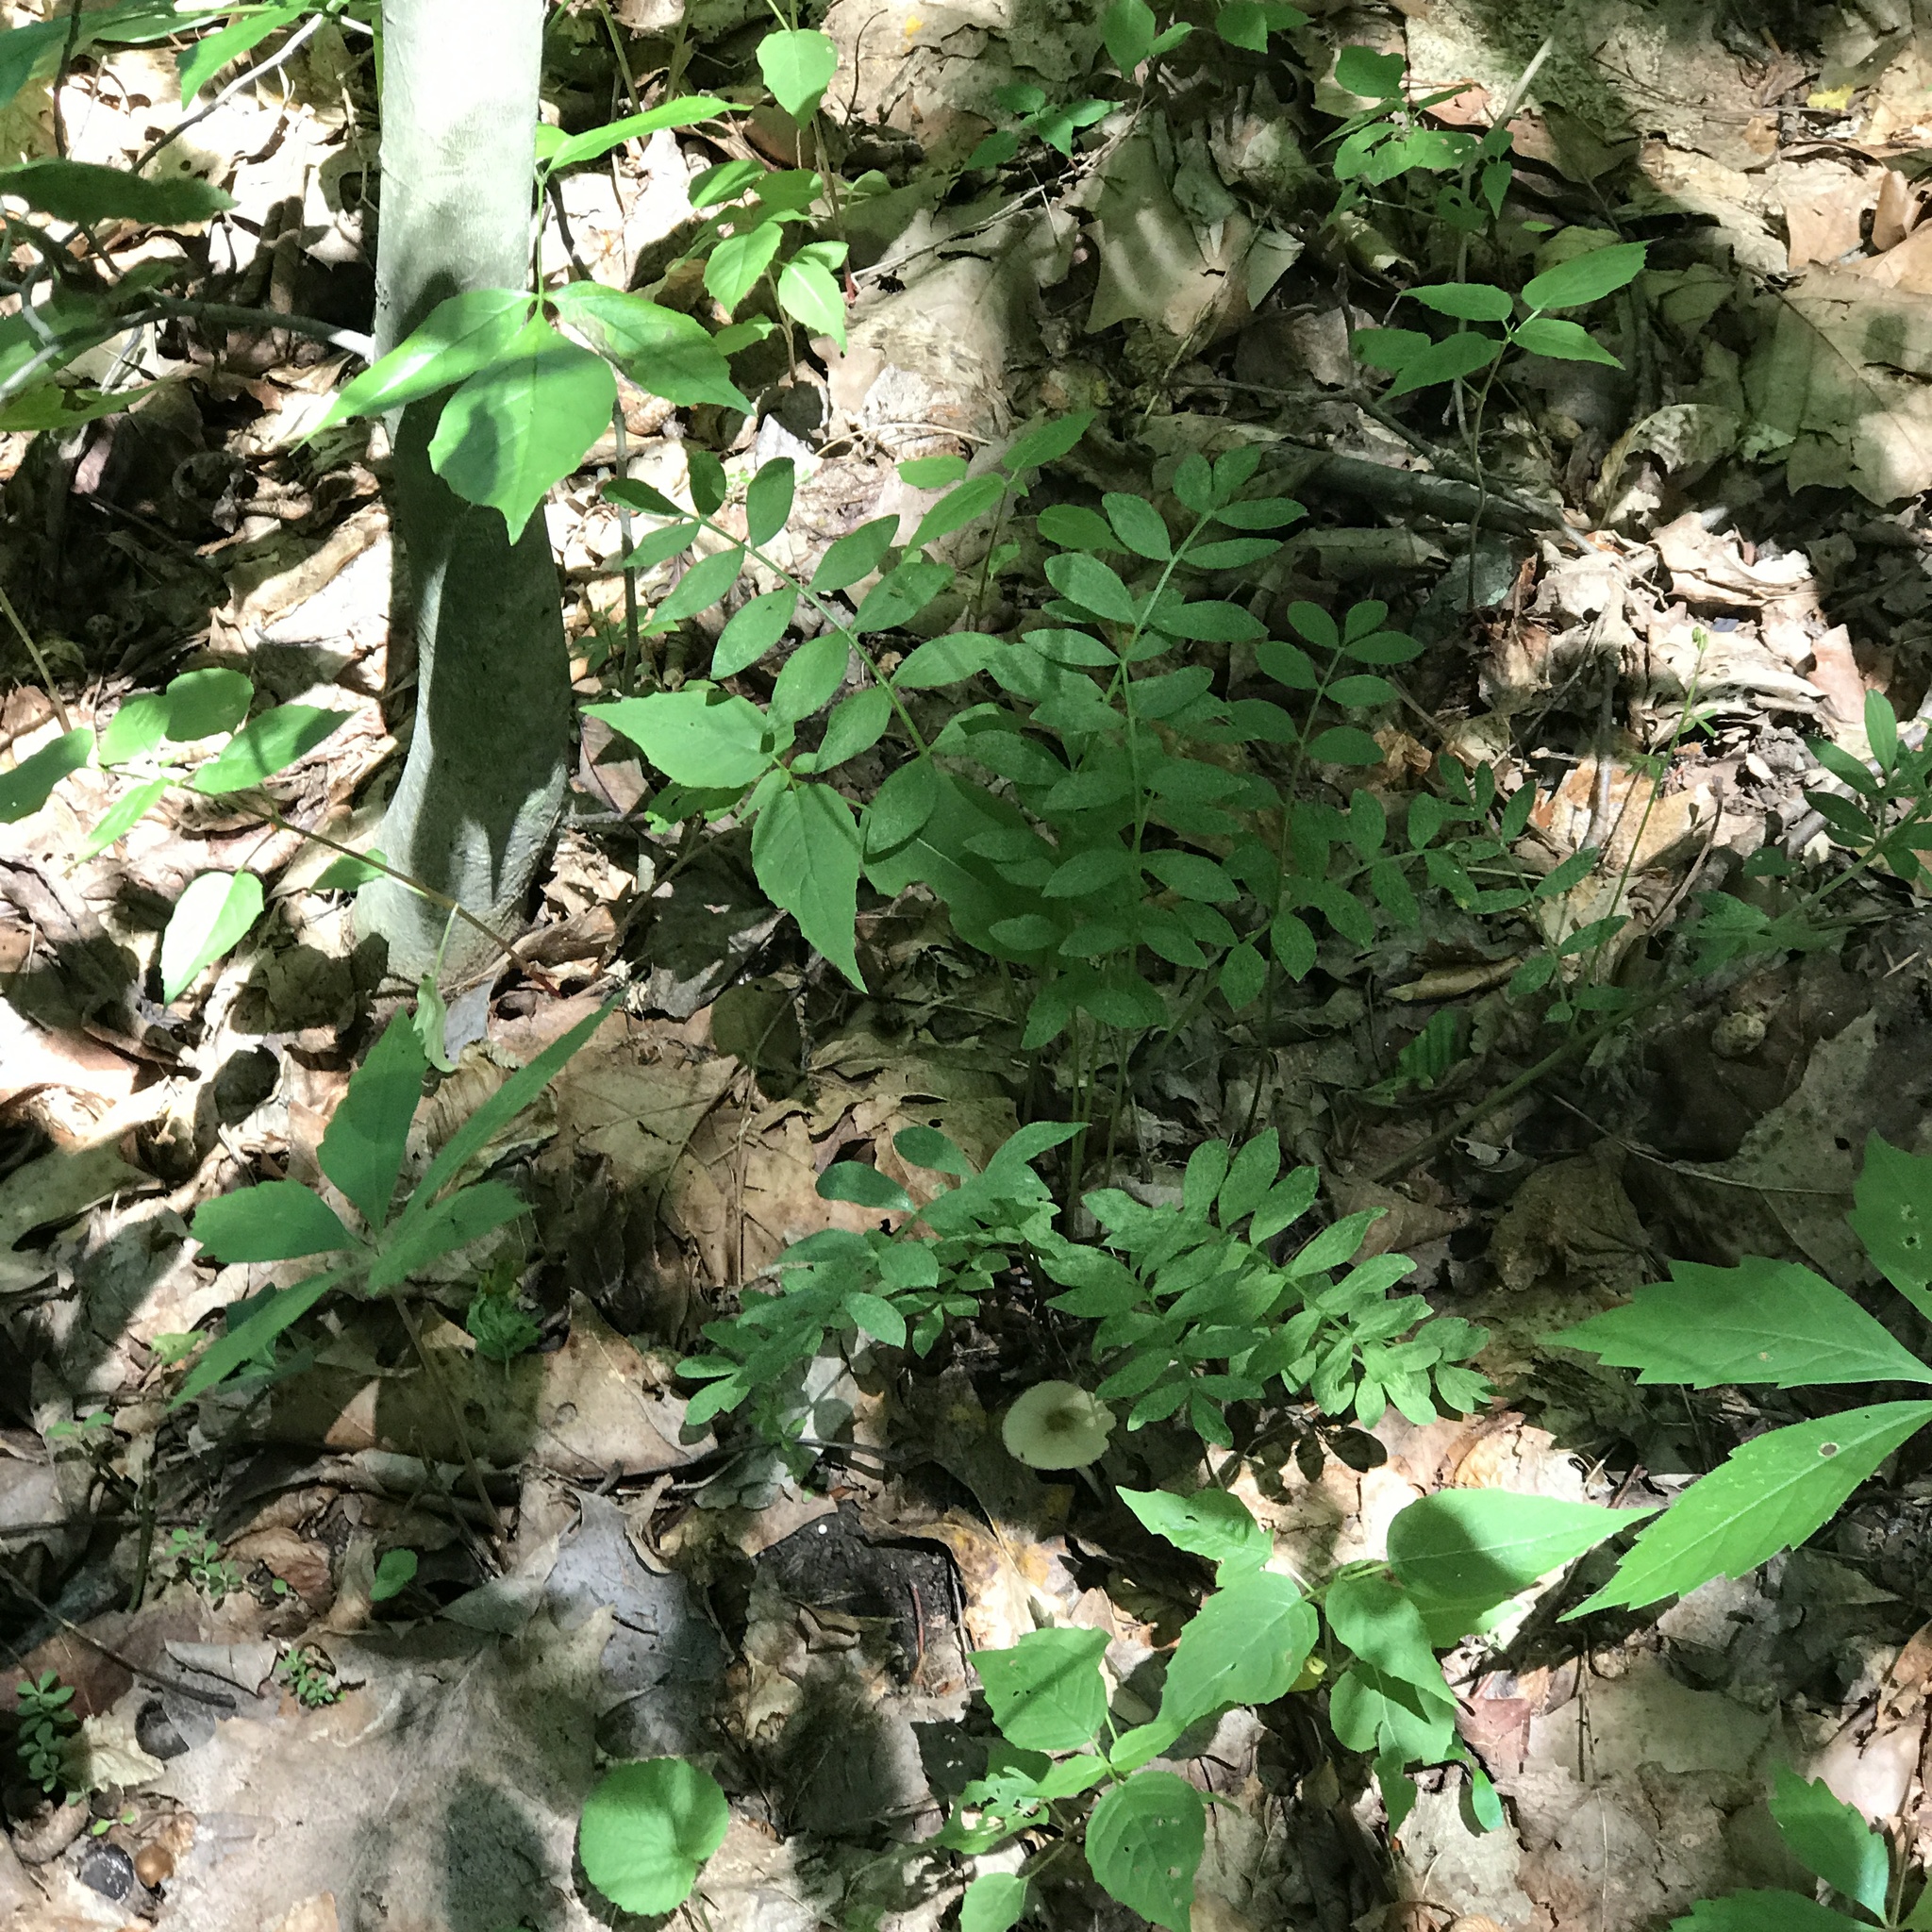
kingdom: Plantae
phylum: Tracheophyta
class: Magnoliopsida
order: Ericales
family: Polemoniaceae
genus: Polemonium
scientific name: Polemonium reptans
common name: Creeping jacob's-ladder
